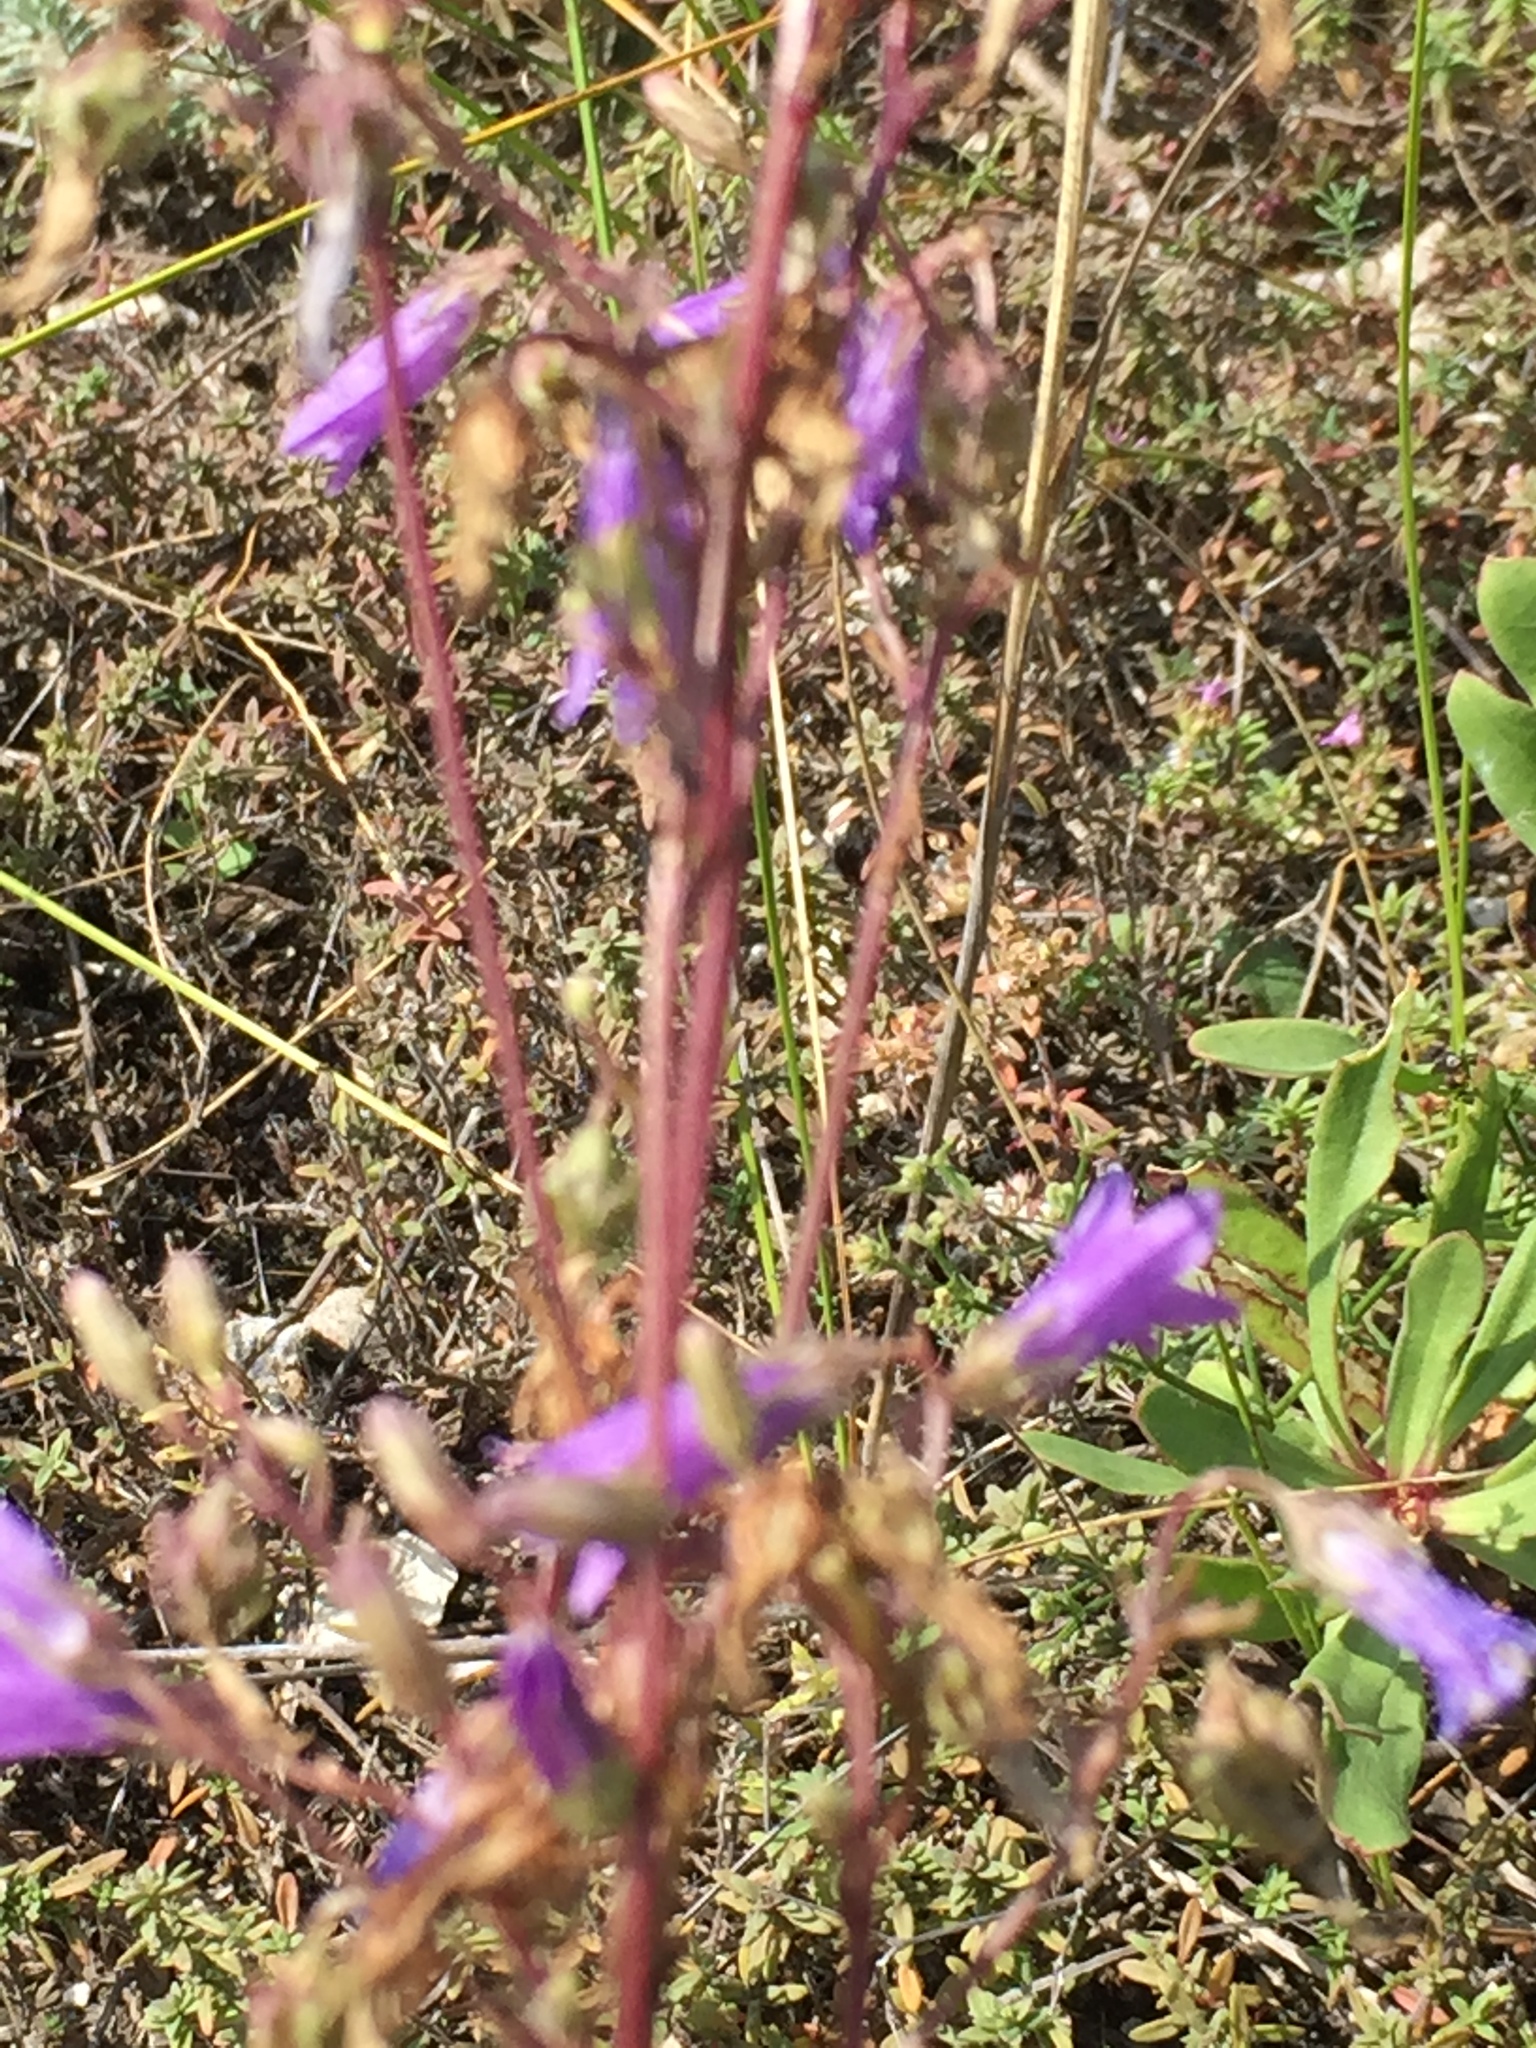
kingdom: Plantae
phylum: Tracheophyta
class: Magnoliopsida
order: Asterales
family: Campanulaceae
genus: Campanula
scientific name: Campanula sibirica
